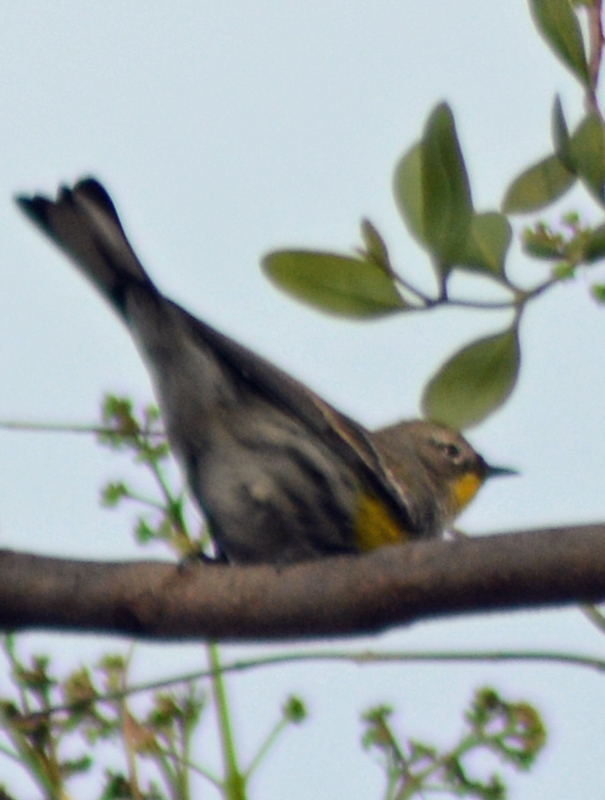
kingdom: Animalia
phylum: Chordata
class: Aves
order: Passeriformes
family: Parulidae
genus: Setophaga
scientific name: Setophaga auduboni
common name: Audubon's warbler
